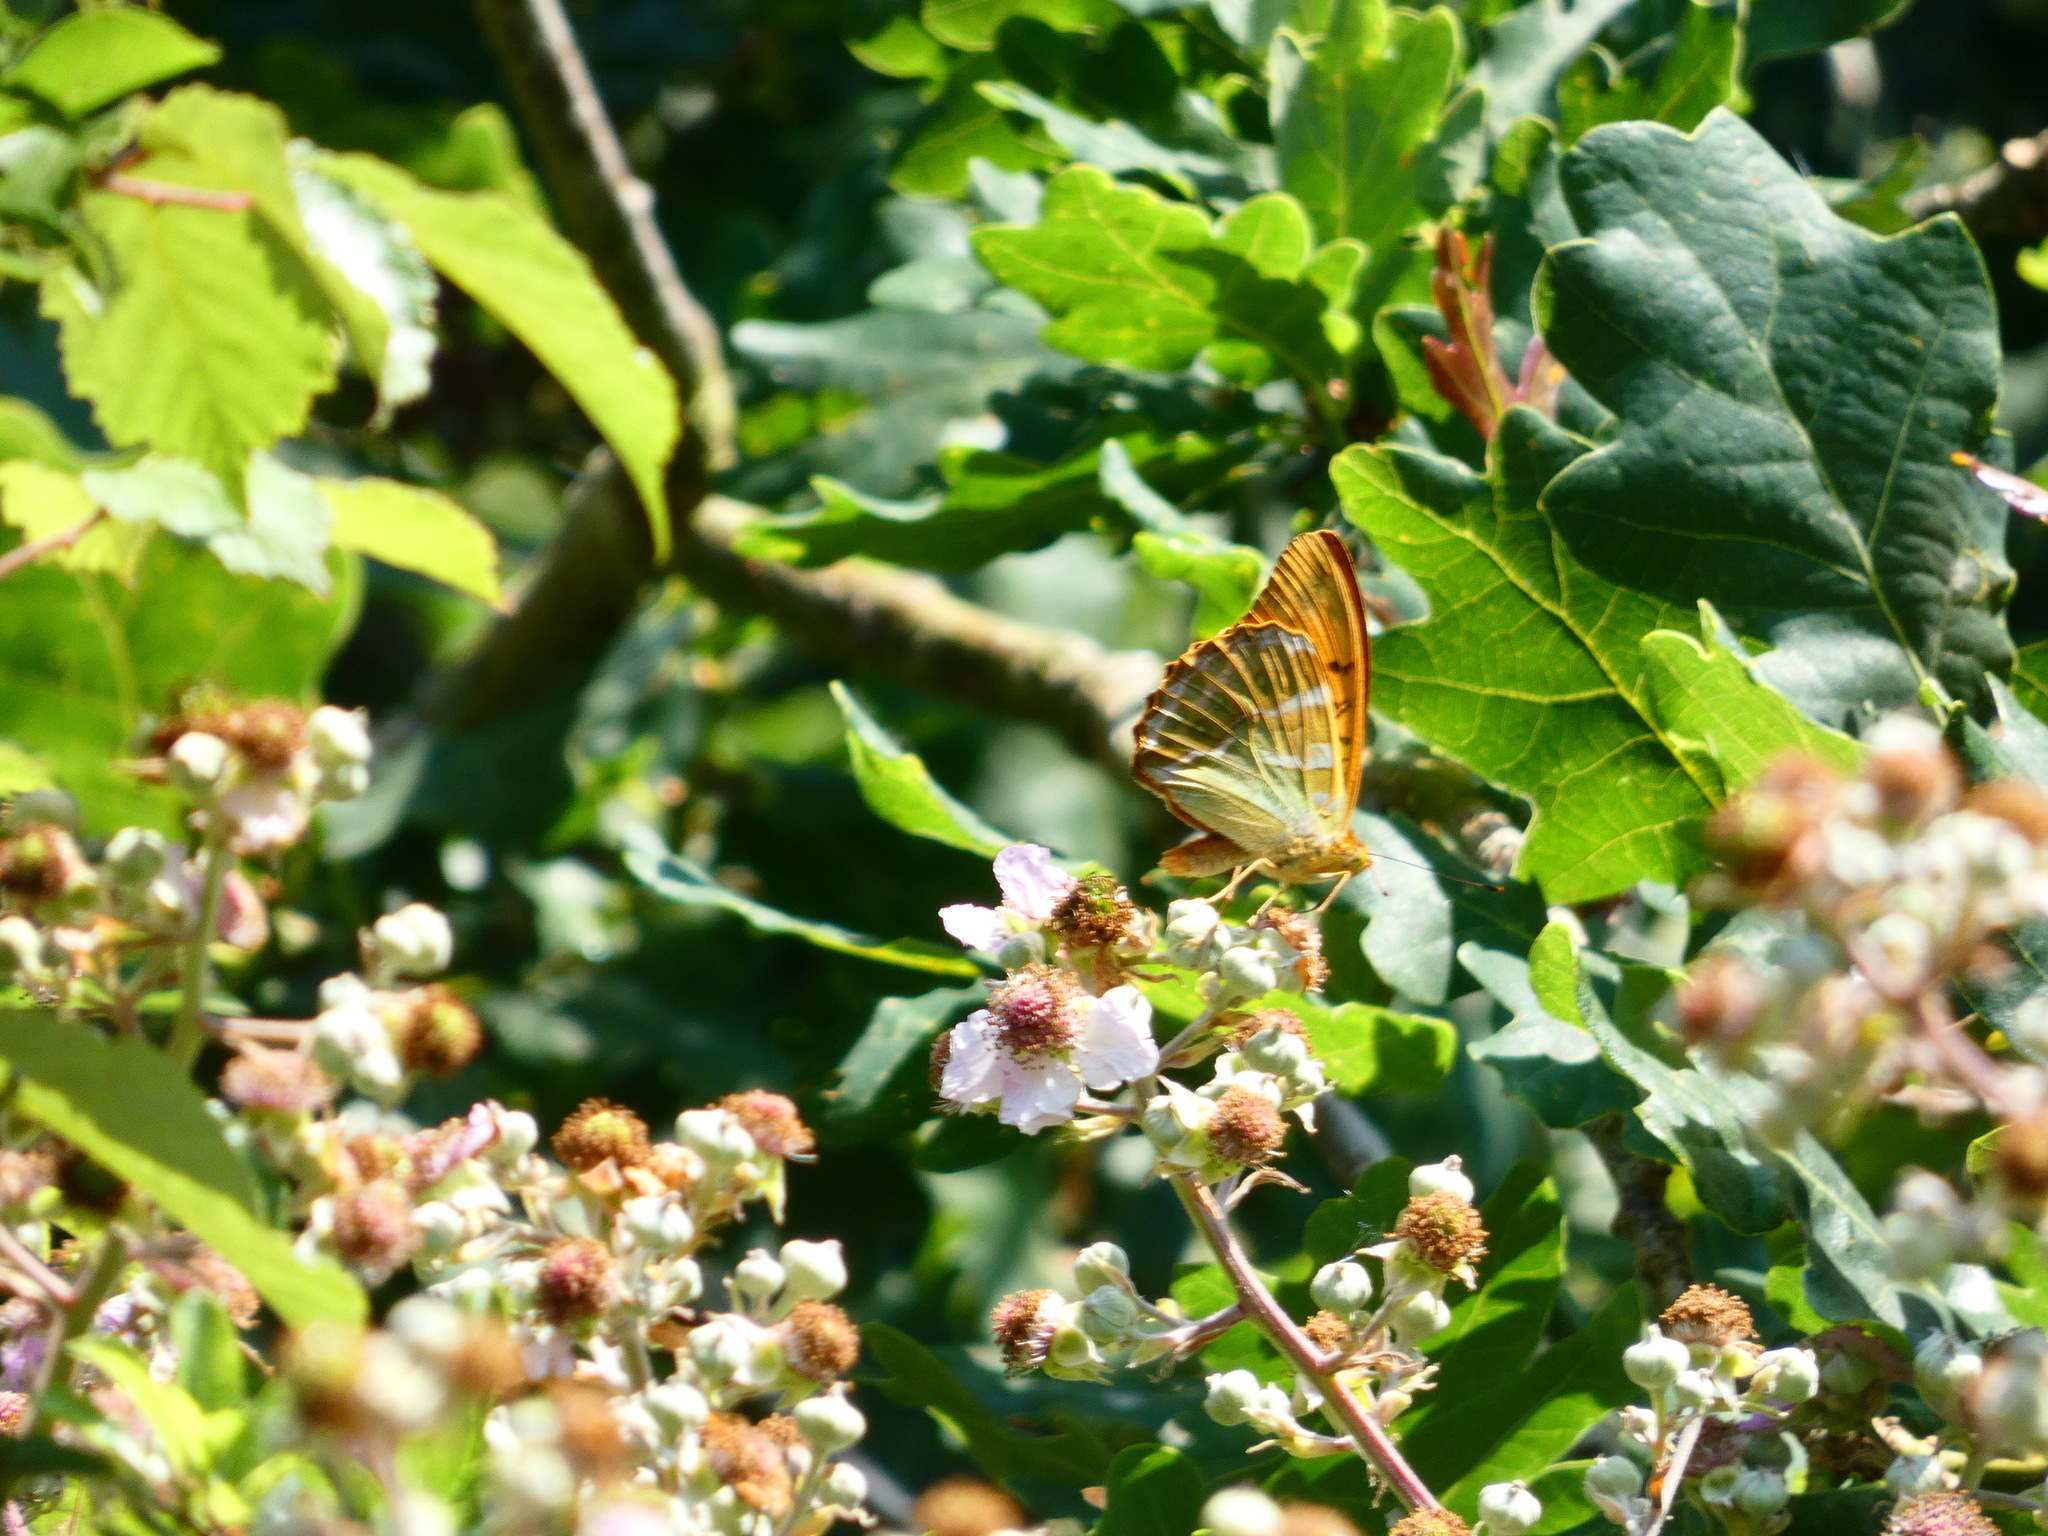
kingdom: Animalia
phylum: Arthropoda
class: Insecta
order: Lepidoptera
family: Nymphalidae
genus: Argynnis
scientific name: Argynnis paphia
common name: Silver-washed fritillary
